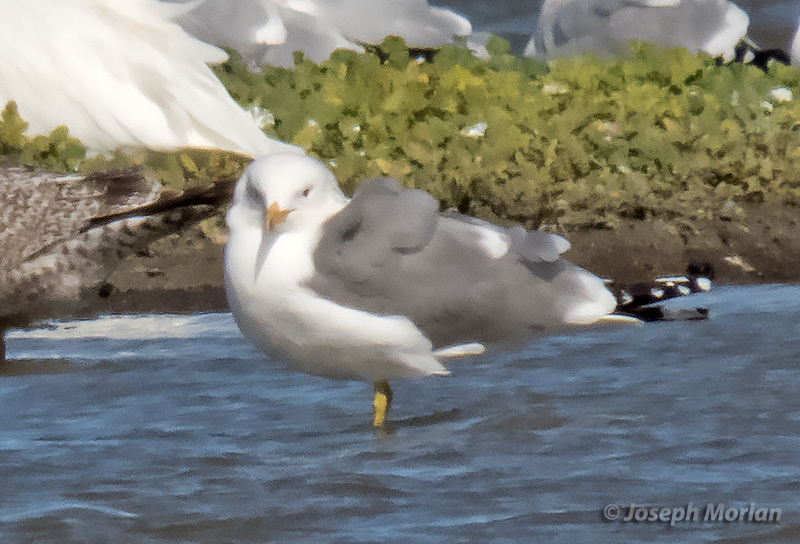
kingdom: Animalia
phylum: Chordata
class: Aves
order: Charadriiformes
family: Laridae
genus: Larus
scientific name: Larus californicus
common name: California gull
